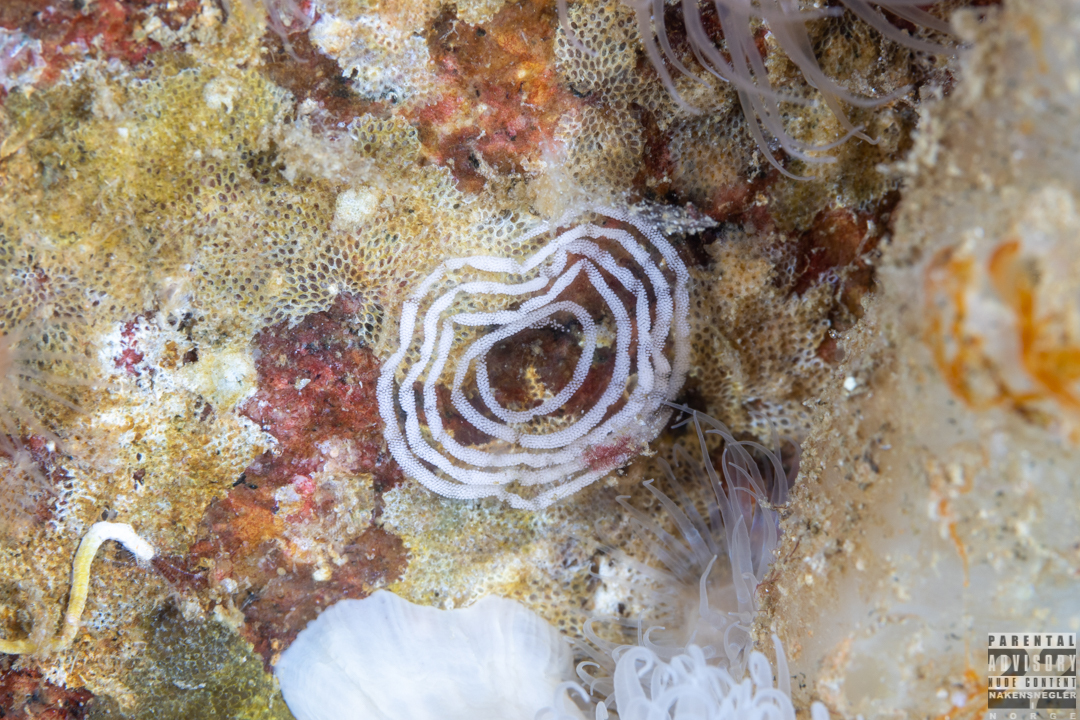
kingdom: Animalia
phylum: Mollusca
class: Gastropoda
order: Nudibranchia
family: Aeolidiidae
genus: Aeolidiella
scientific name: Aeolidiella glauca
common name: Orange-brown aeolid
